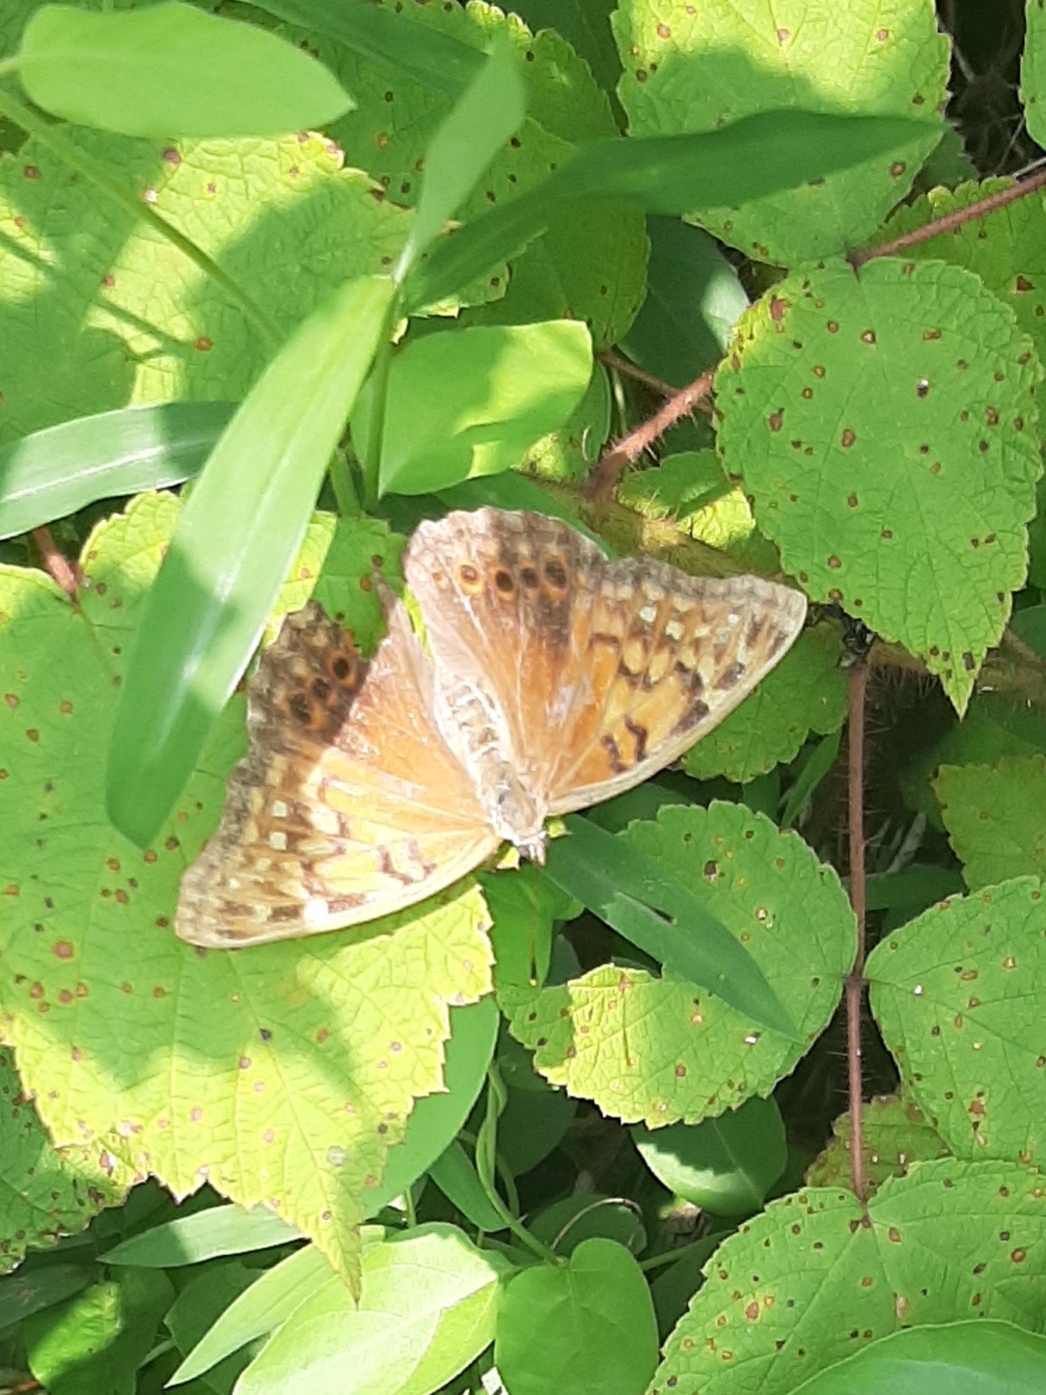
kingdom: Animalia
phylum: Arthropoda
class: Insecta
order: Lepidoptera
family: Nymphalidae
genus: Asterocampa
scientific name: Asterocampa clyton
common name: Tawny emperor
